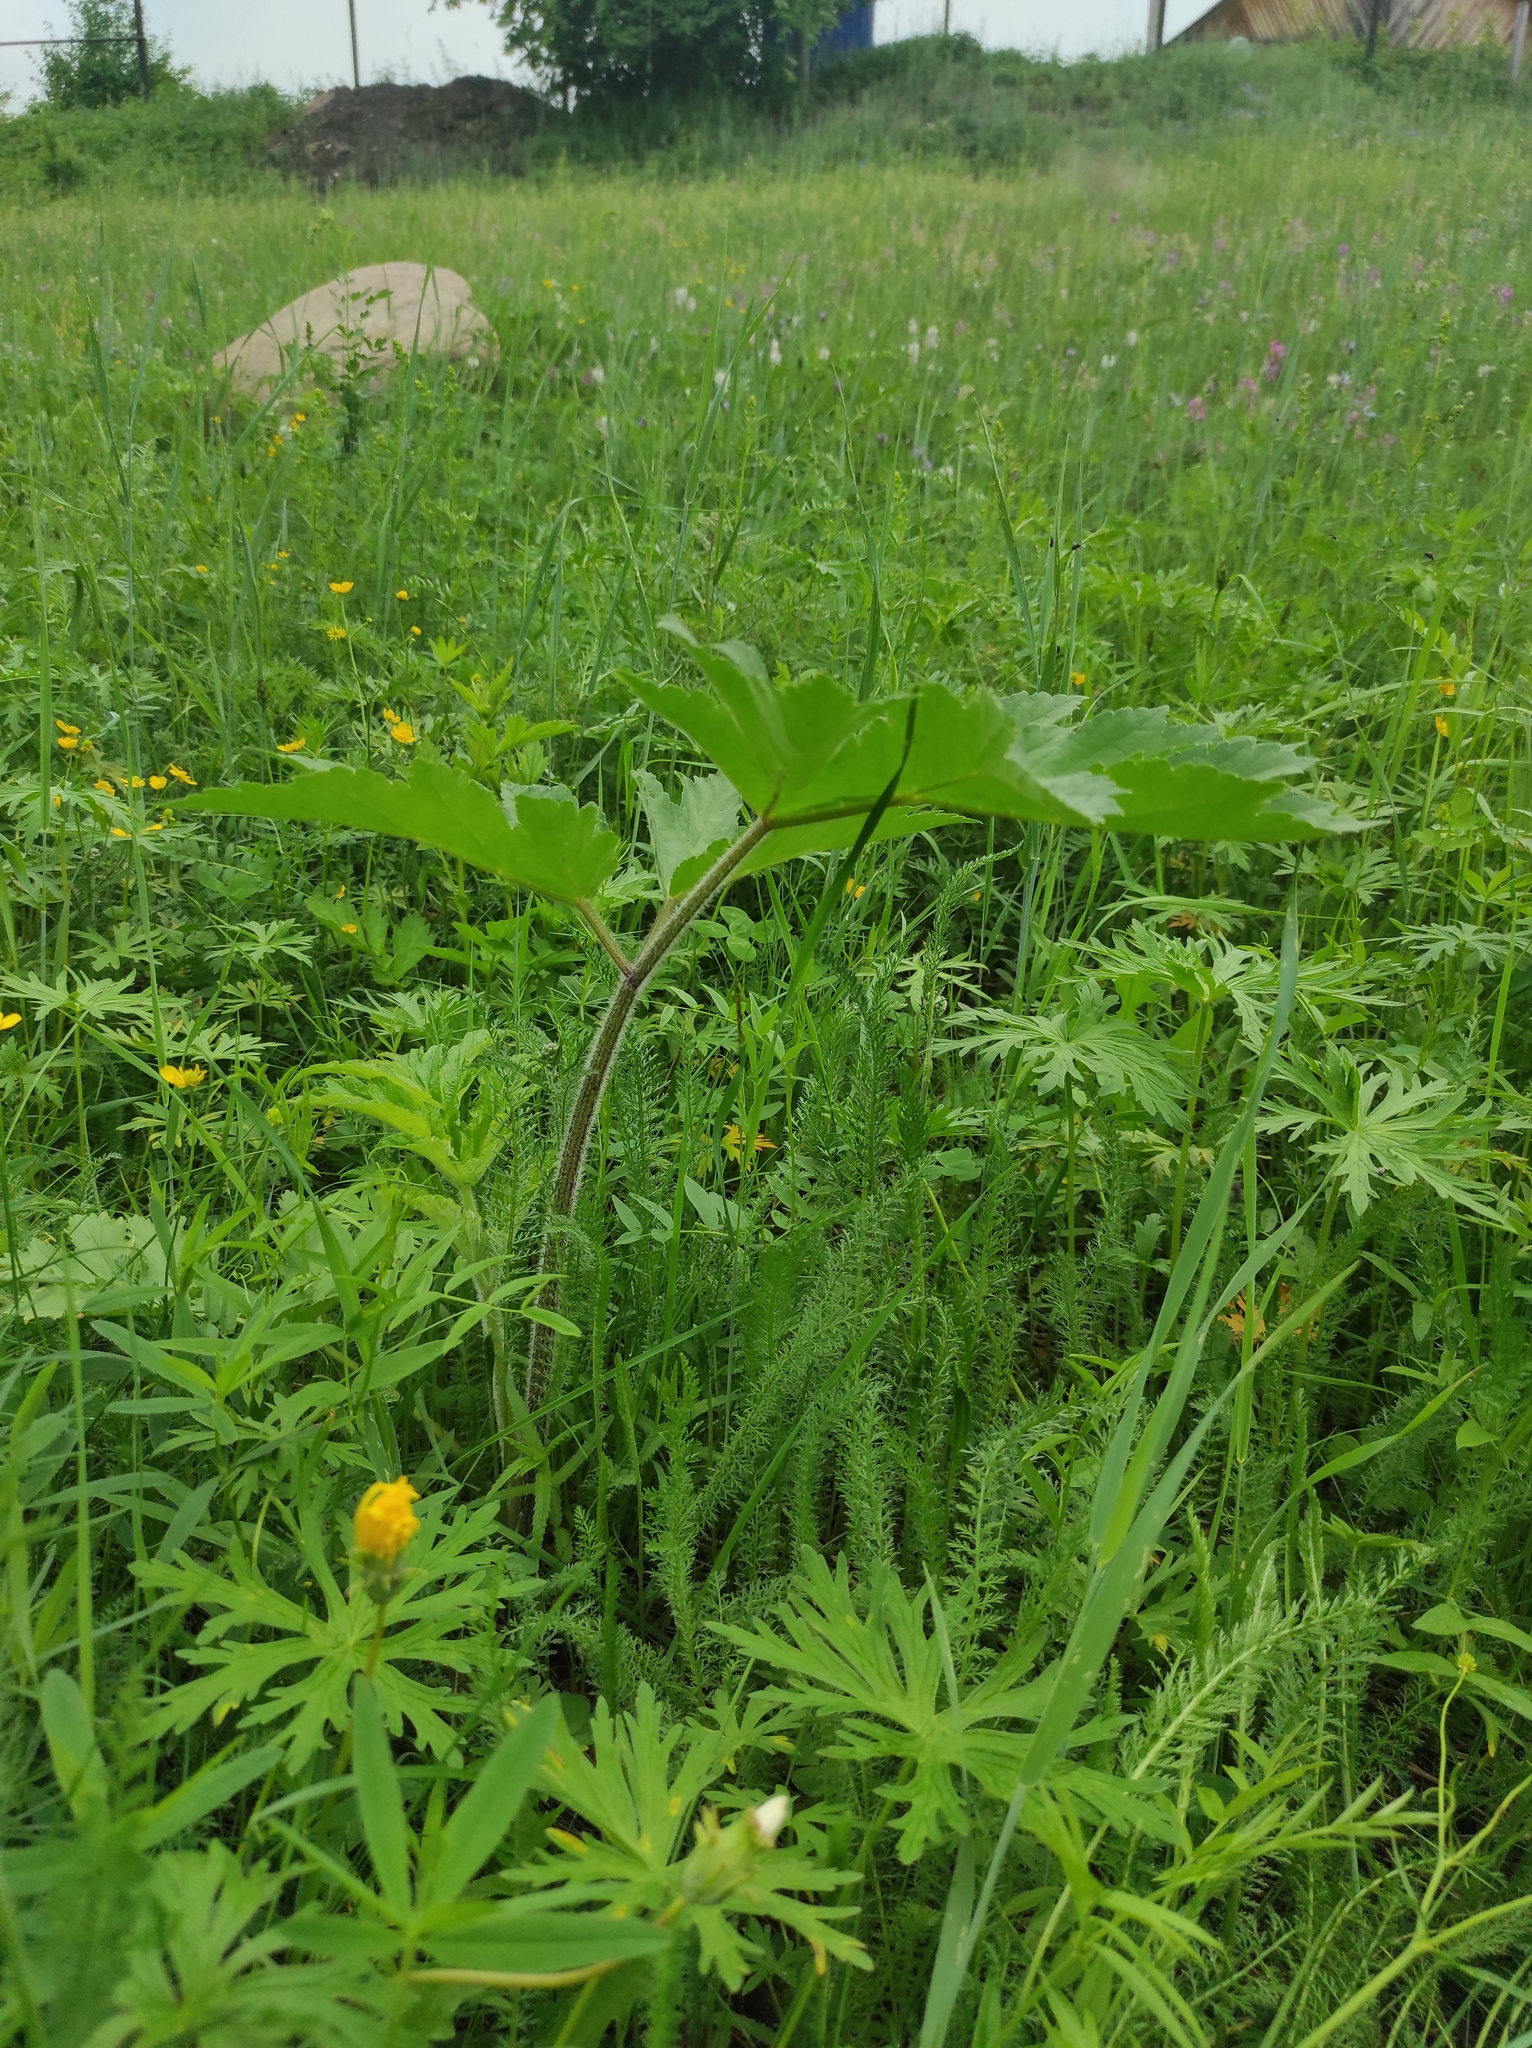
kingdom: Plantae
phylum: Tracheophyta
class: Magnoliopsida
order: Apiales
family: Apiaceae
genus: Heracleum
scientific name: Heracleum dissectum
